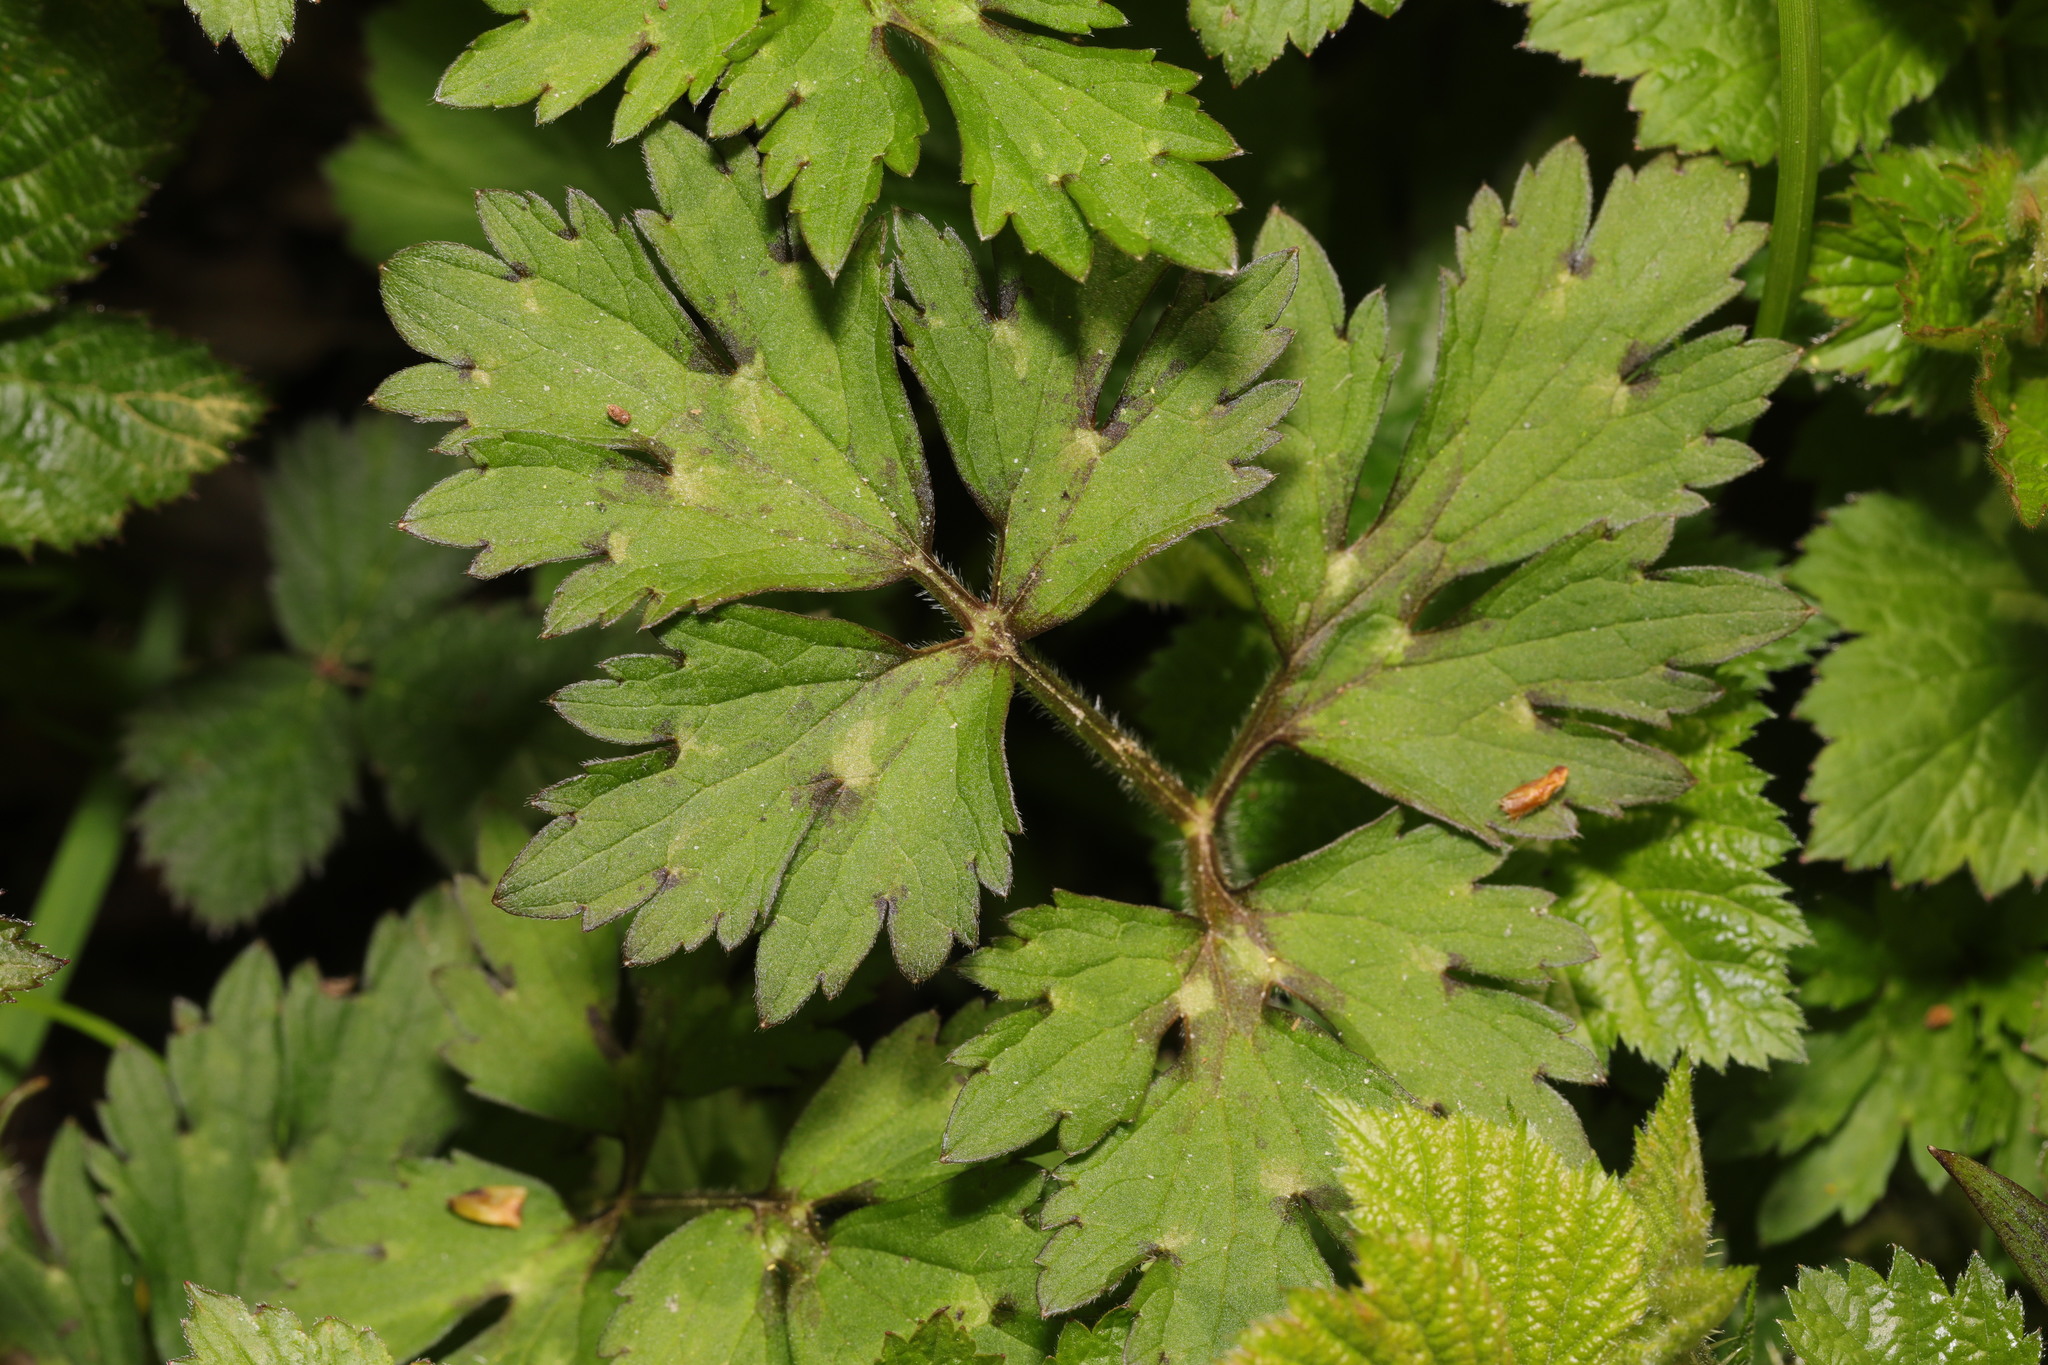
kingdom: Plantae
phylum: Tracheophyta
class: Magnoliopsida
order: Ranunculales
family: Ranunculaceae
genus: Ranunculus
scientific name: Ranunculus repens
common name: Creeping buttercup
